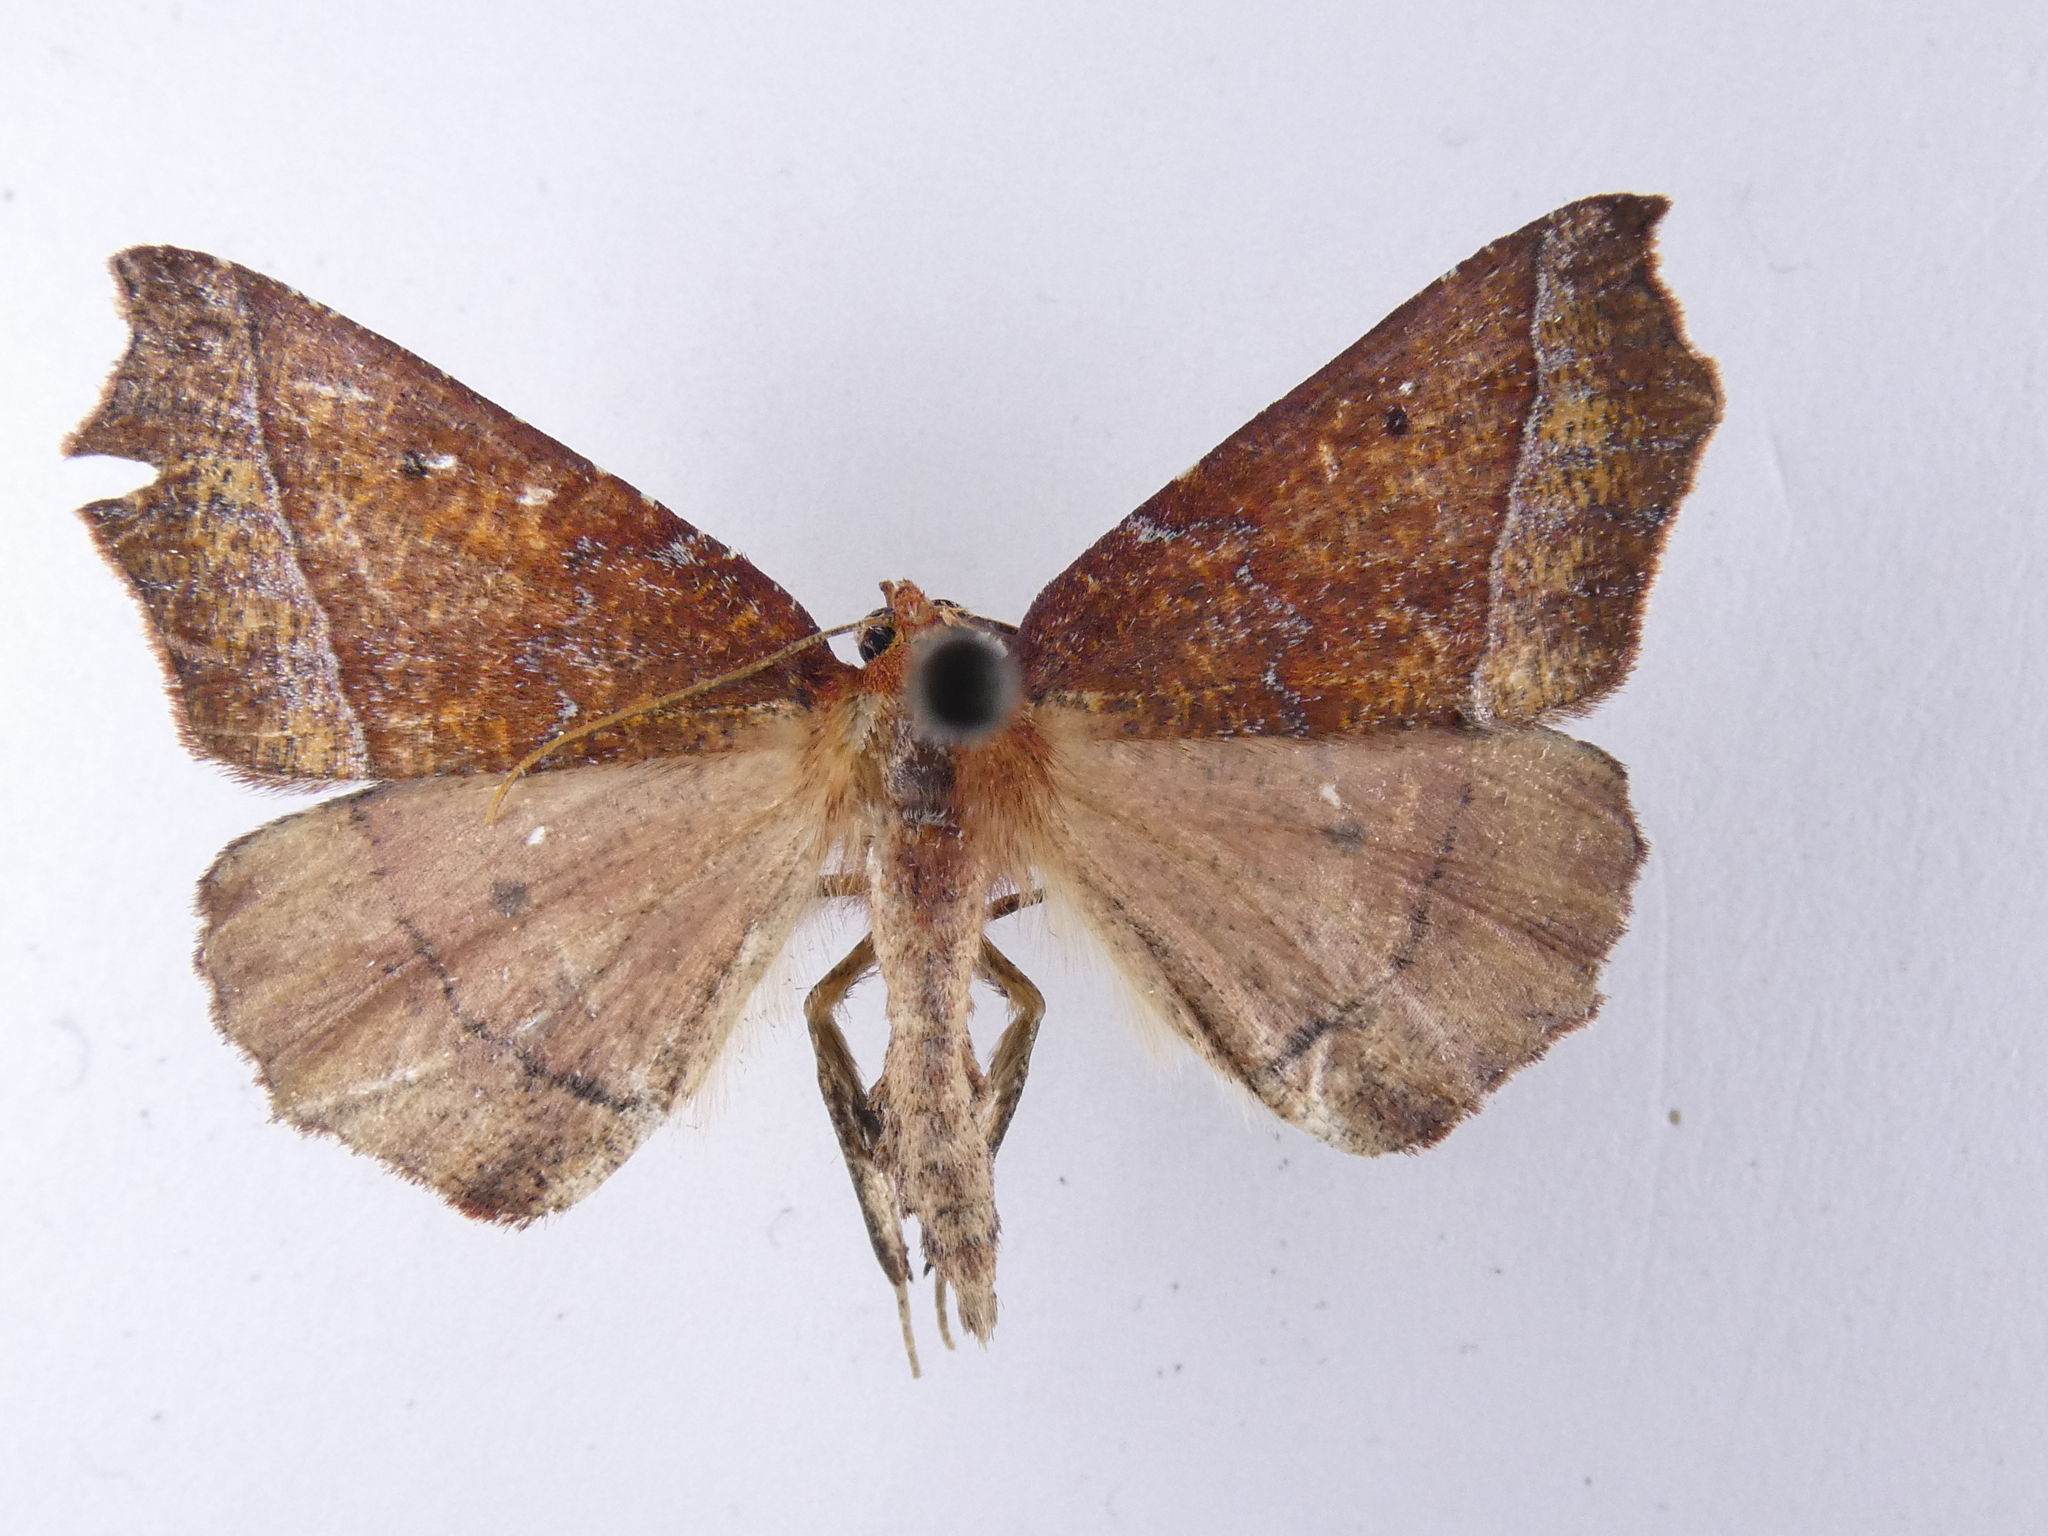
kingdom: Animalia
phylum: Arthropoda
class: Insecta
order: Lepidoptera
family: Geometridae
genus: Ischalis
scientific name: Ischalis nelsonaria
